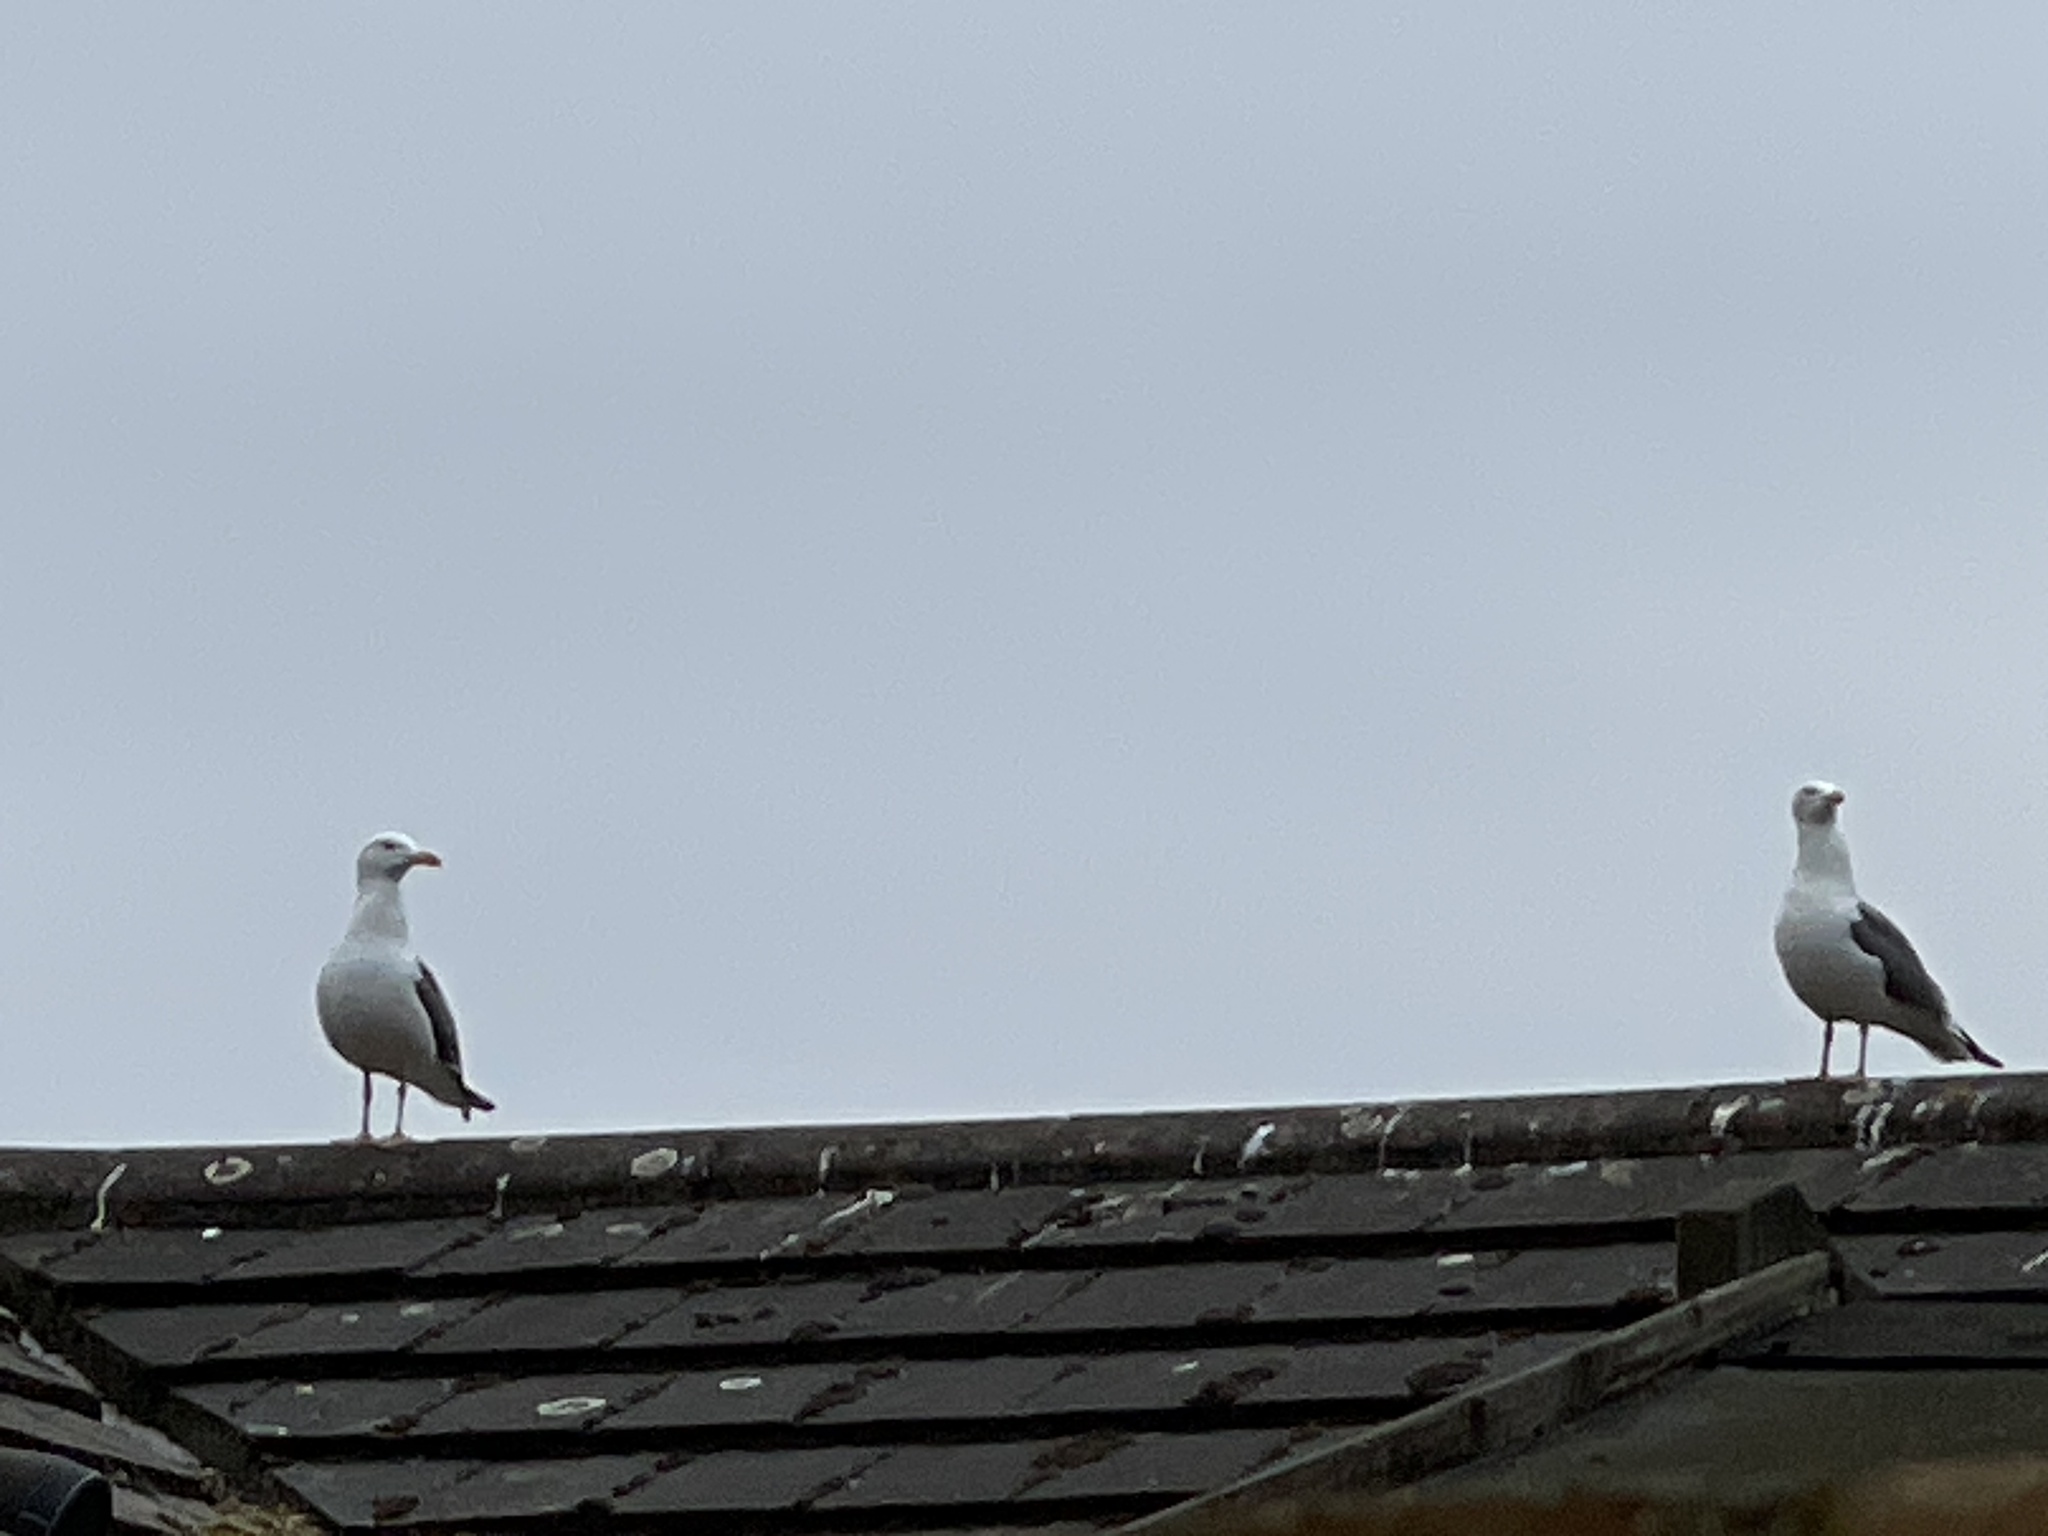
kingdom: Animalia
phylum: Chordata
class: Aves
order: Charadriiformes
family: Laridae
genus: Larus
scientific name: Larus fuscus
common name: Lesser black-backed gull
